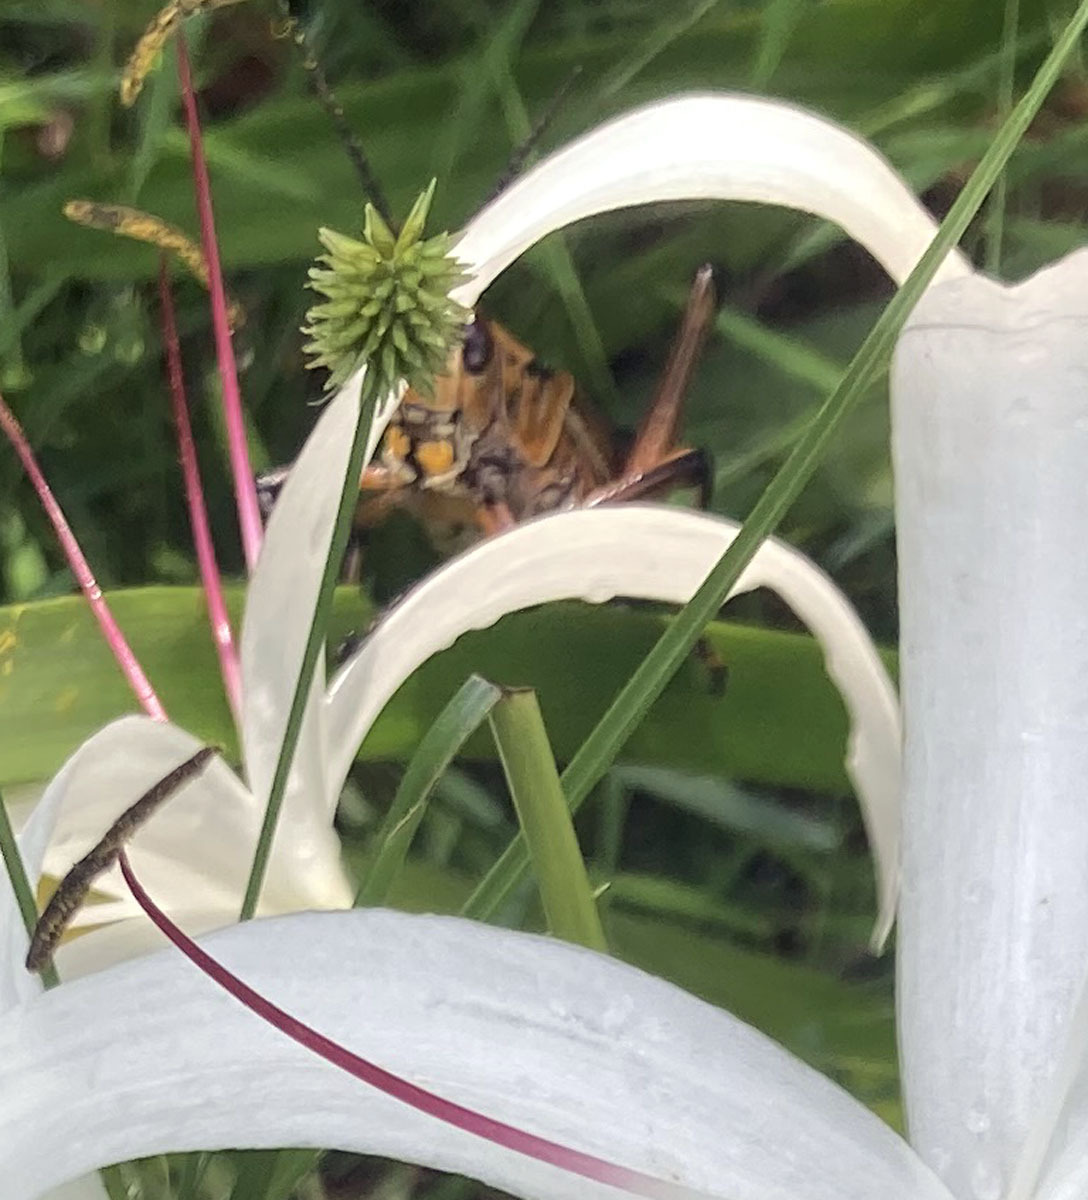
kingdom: Animalia
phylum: Arthropoda
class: Insecta
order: Orthoptera
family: Romaleidae
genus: Romalea
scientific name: Romalea microptera
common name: Eastern lubber grasshopper
